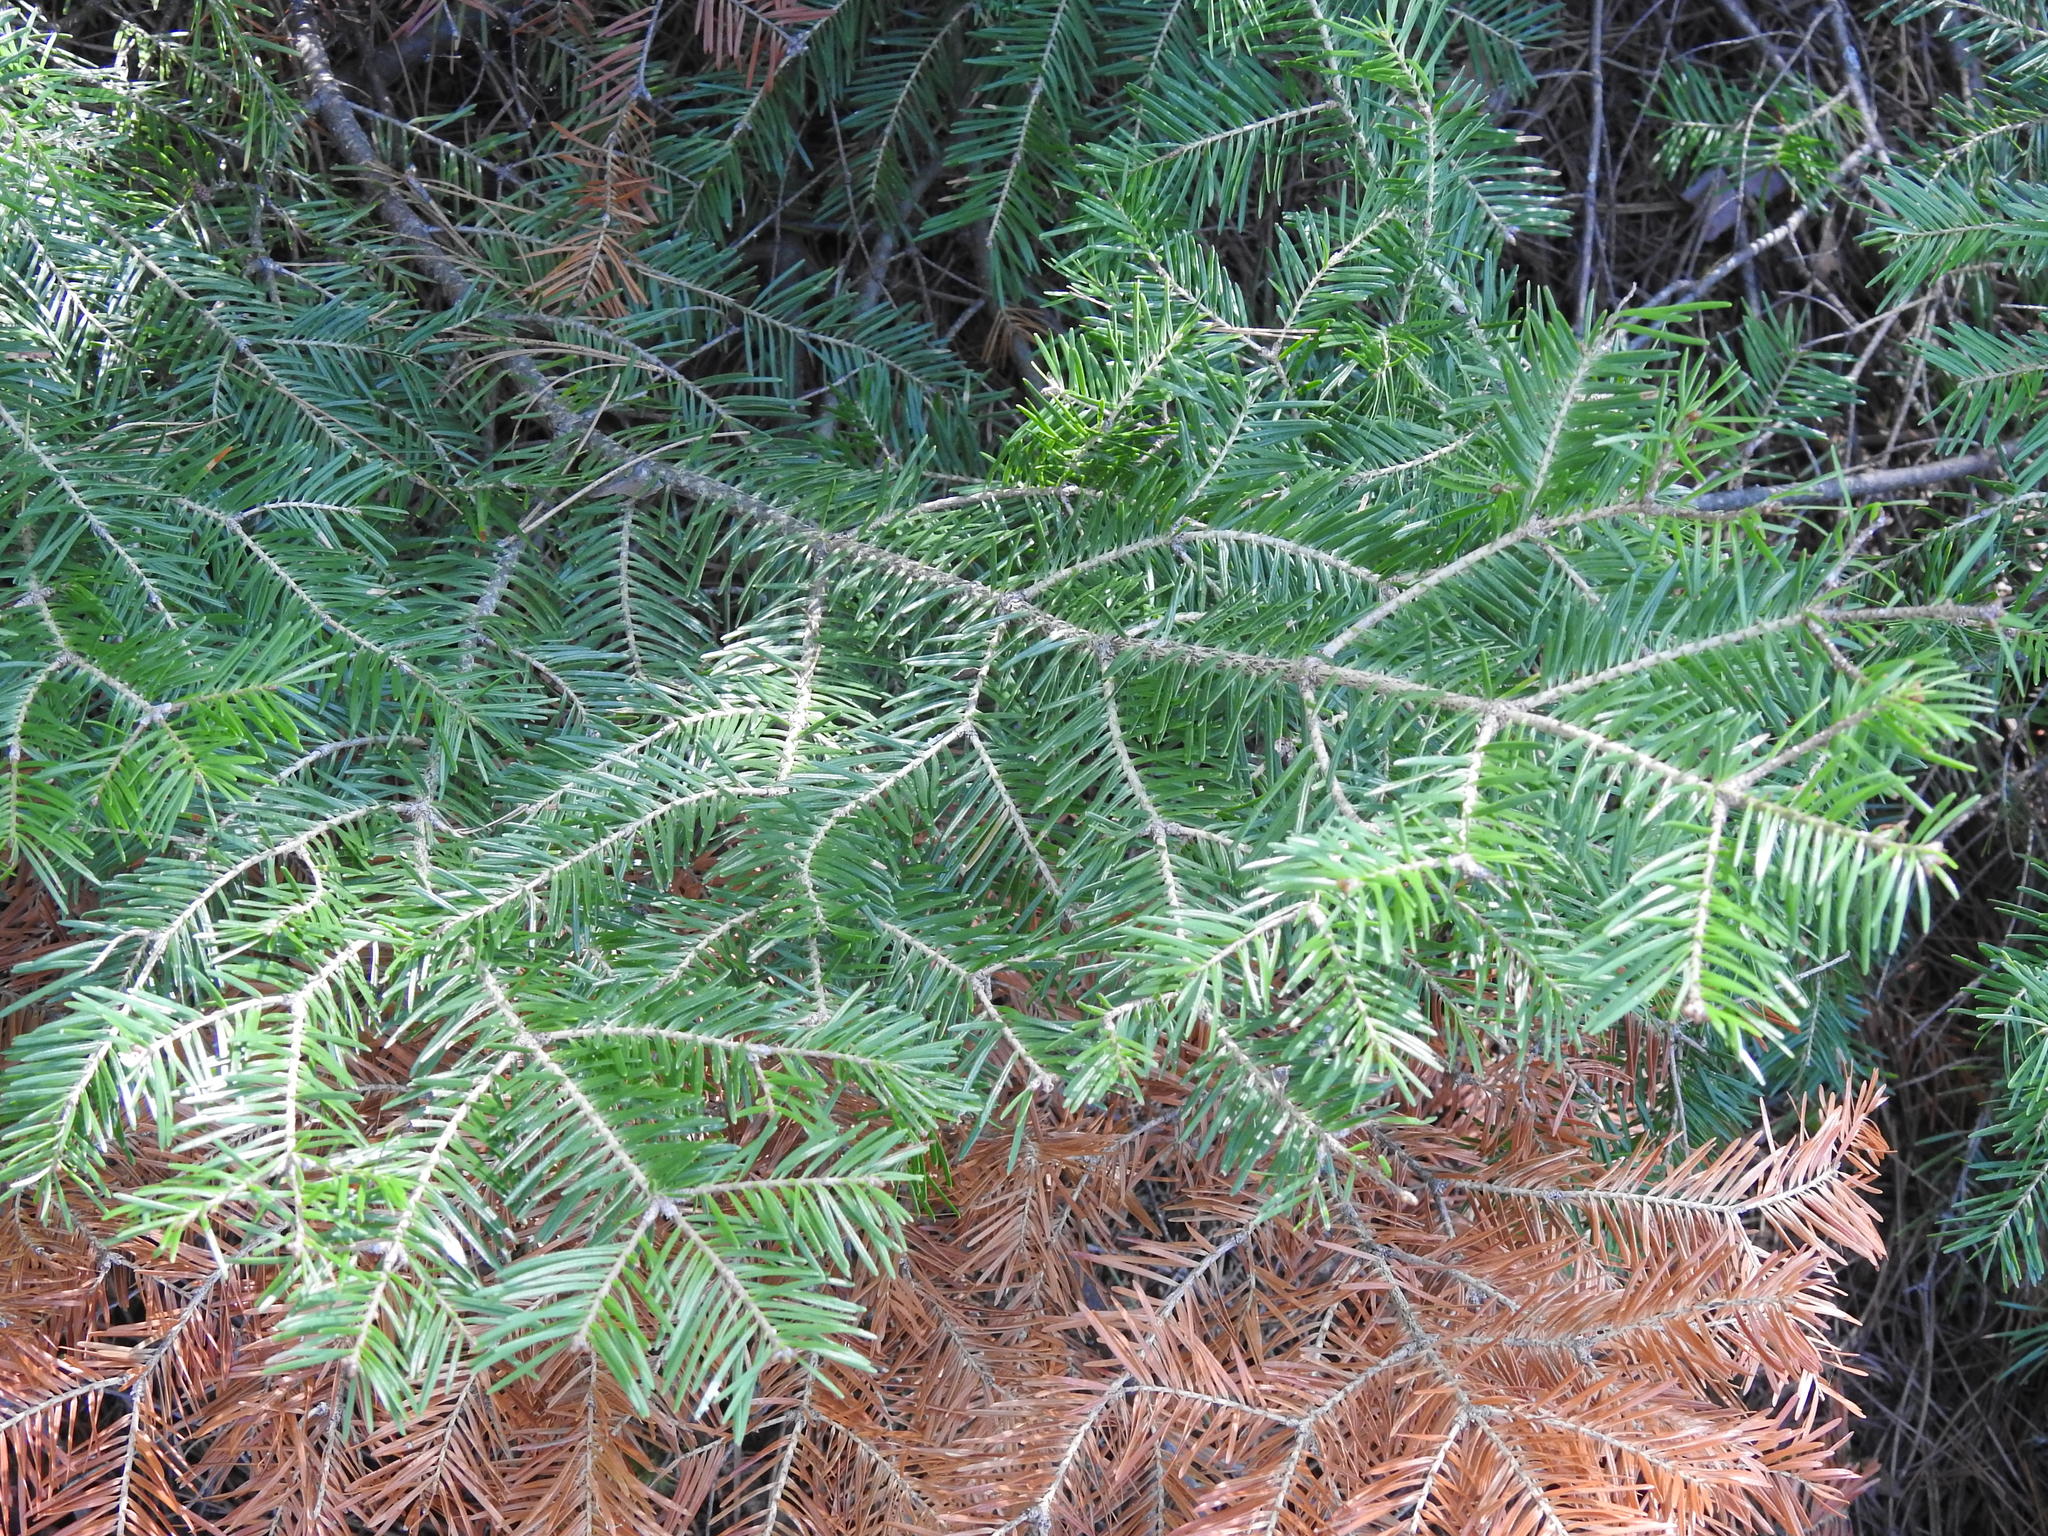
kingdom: Plantae
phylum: Tracheophyta
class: Pinopsida
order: Pinales
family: Pinaceae
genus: Abies
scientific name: Abies balsamea
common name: Balsam fir
